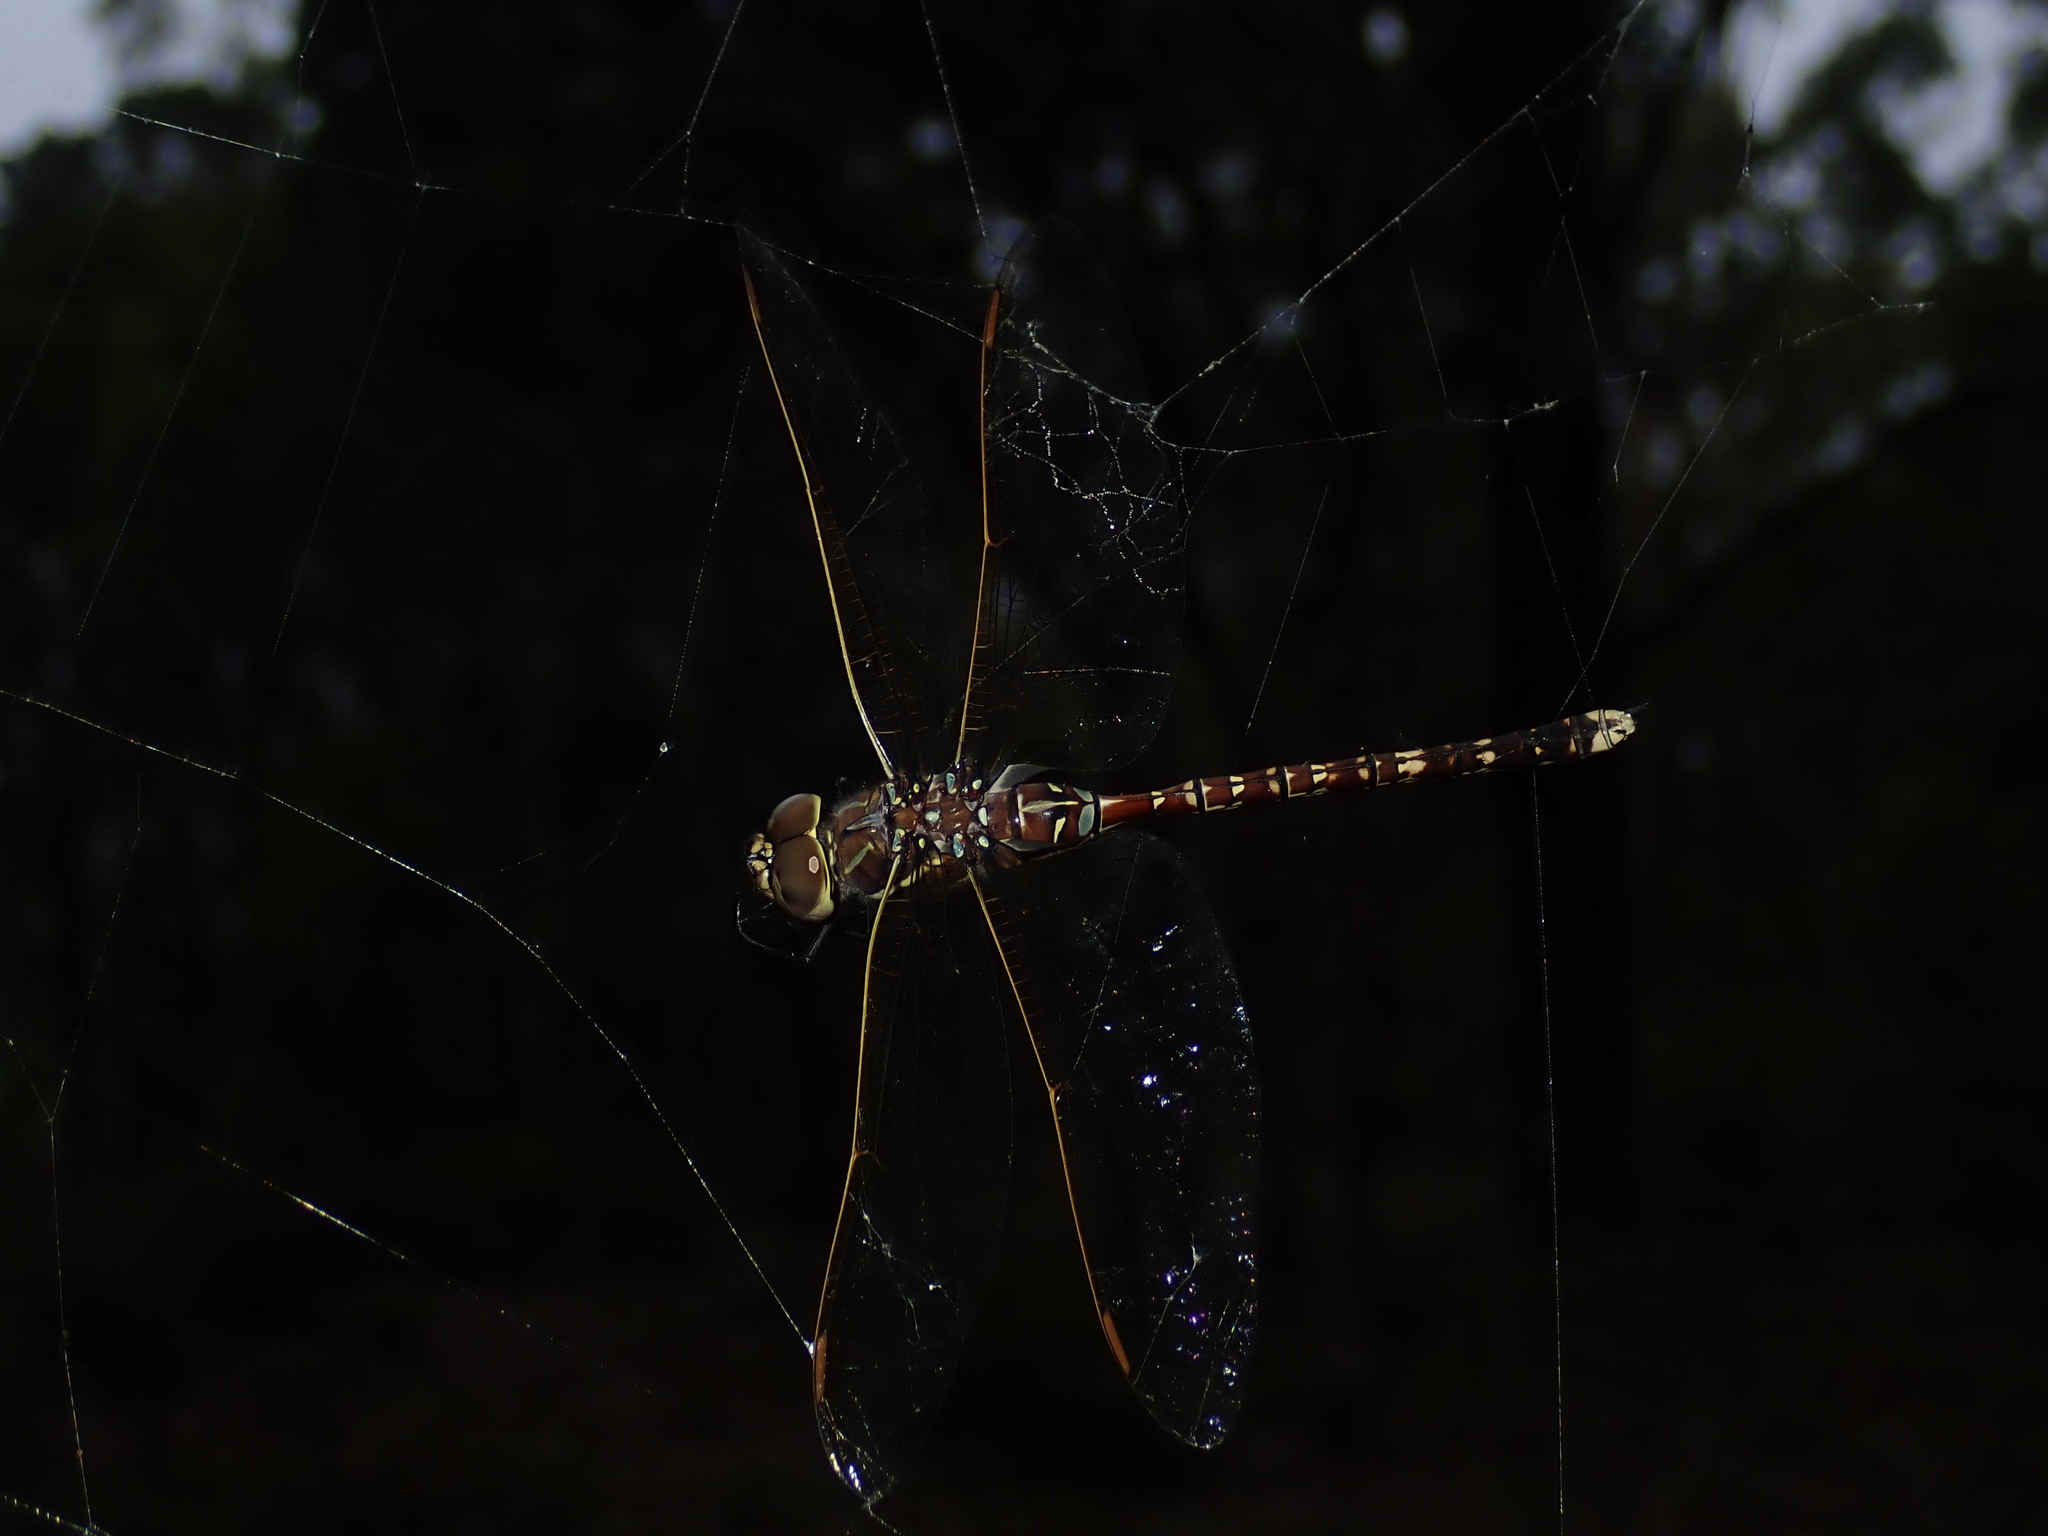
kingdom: Animalia
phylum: Arthropoda
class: Insecta
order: Odonata
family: Aeshnidae
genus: Aeshna
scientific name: Aeshna brevistyla
